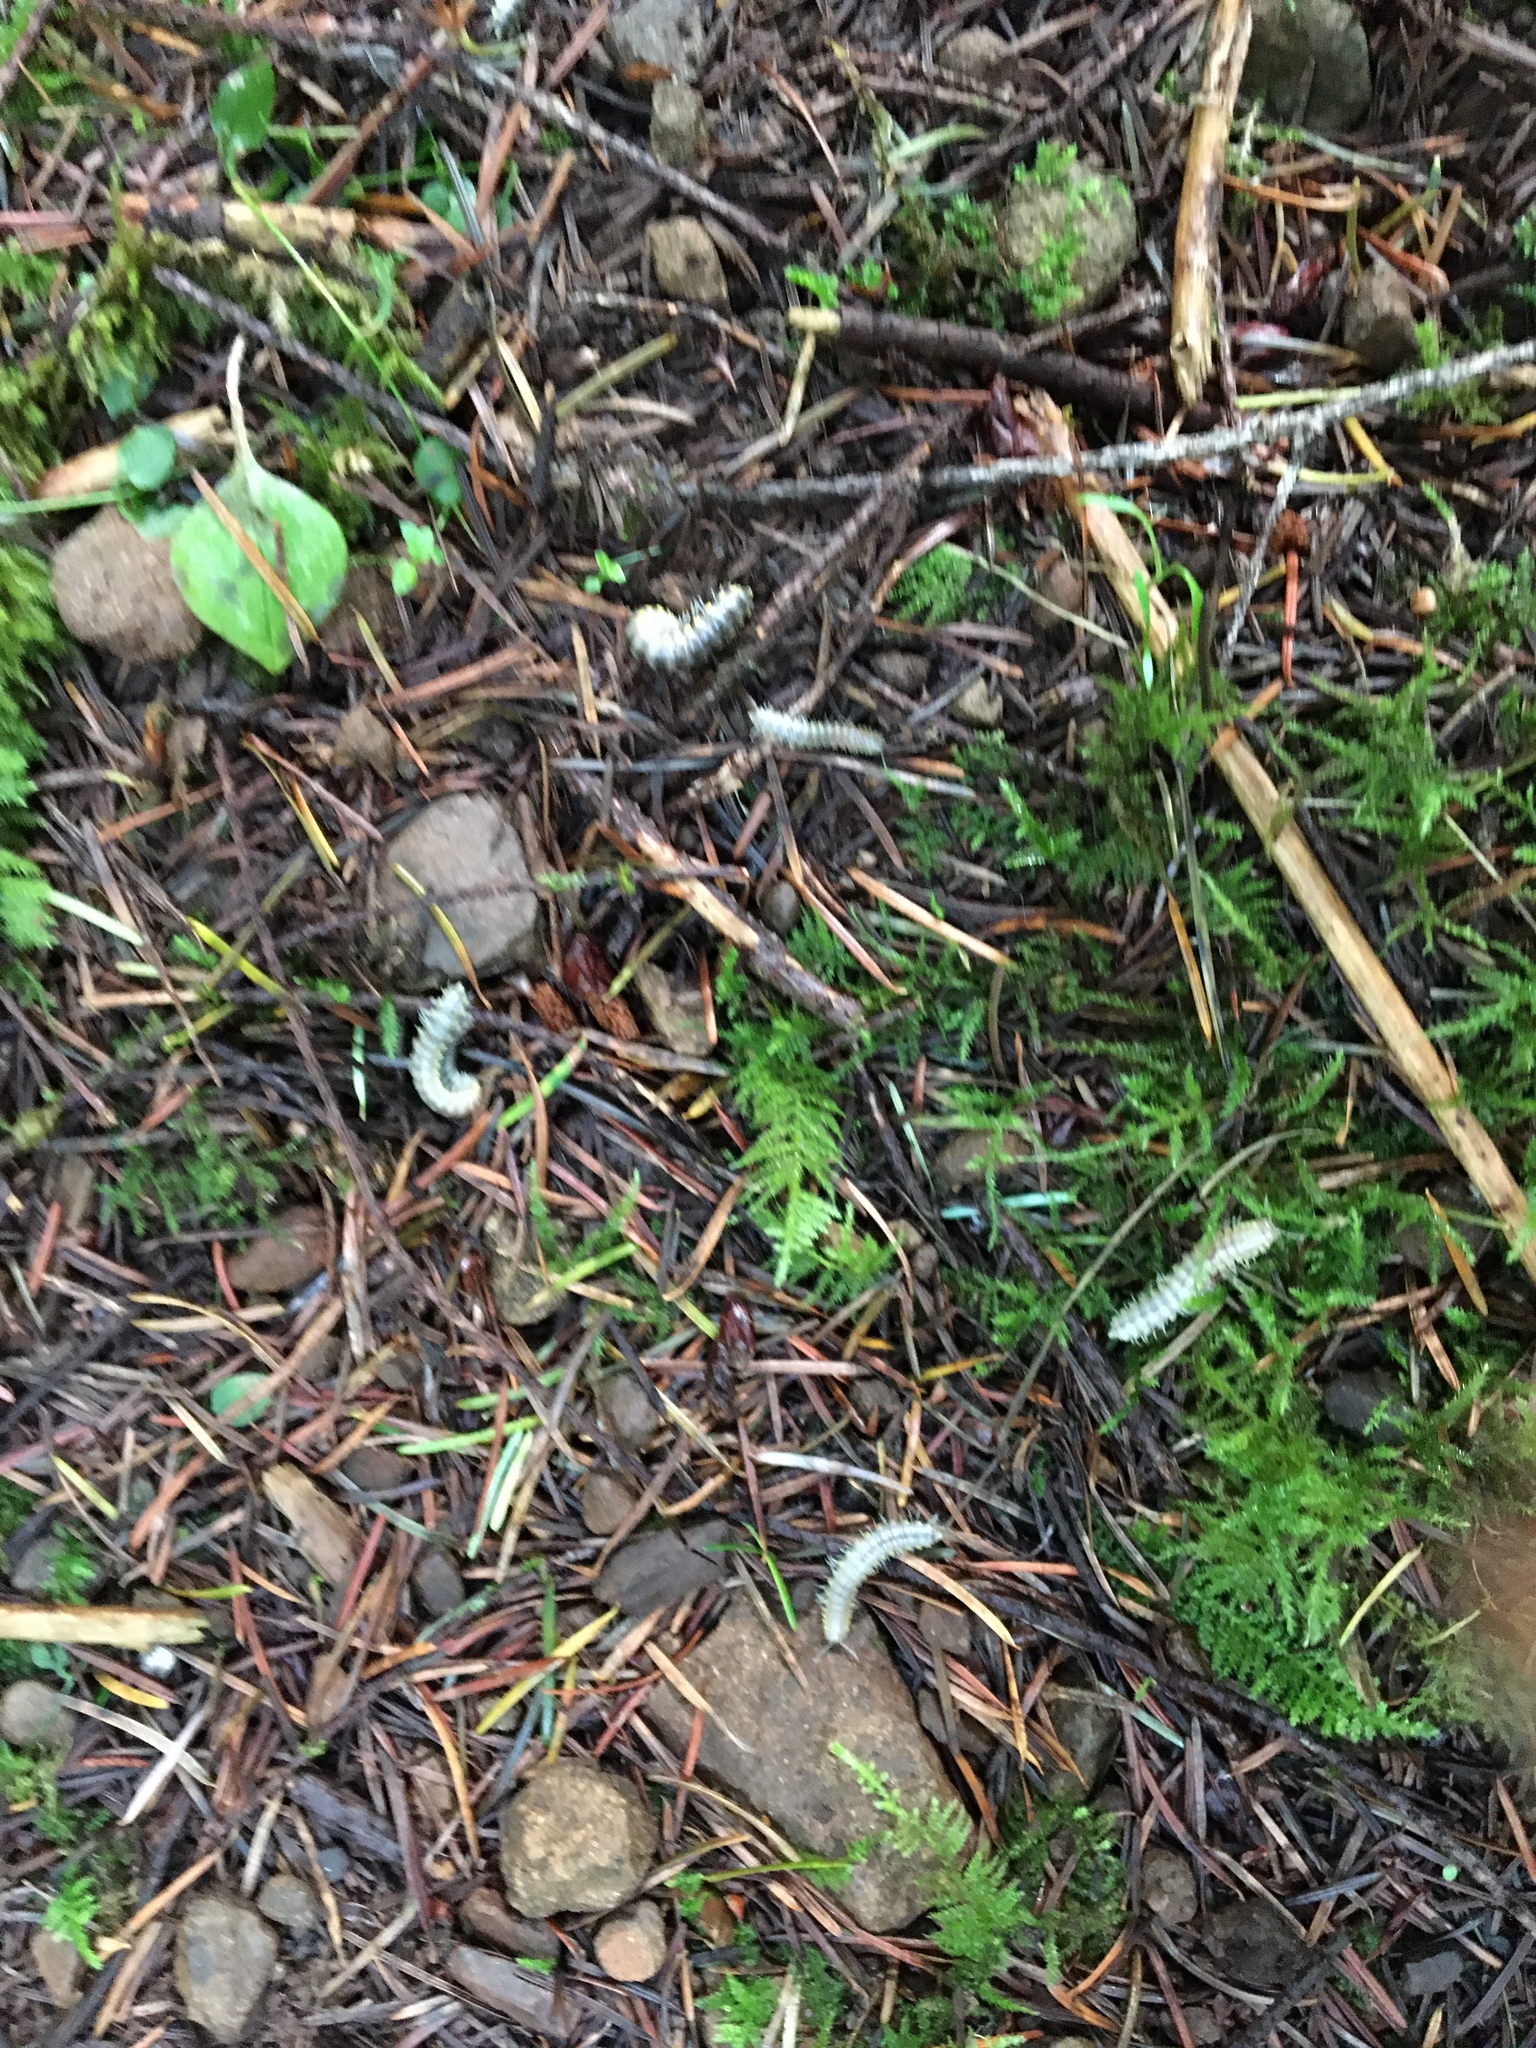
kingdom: Animalia
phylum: Arthropoda
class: Diplopoda
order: Polydesmida
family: Xystodesmidae
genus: Harpaphe
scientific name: Harpaphe haydeniana
